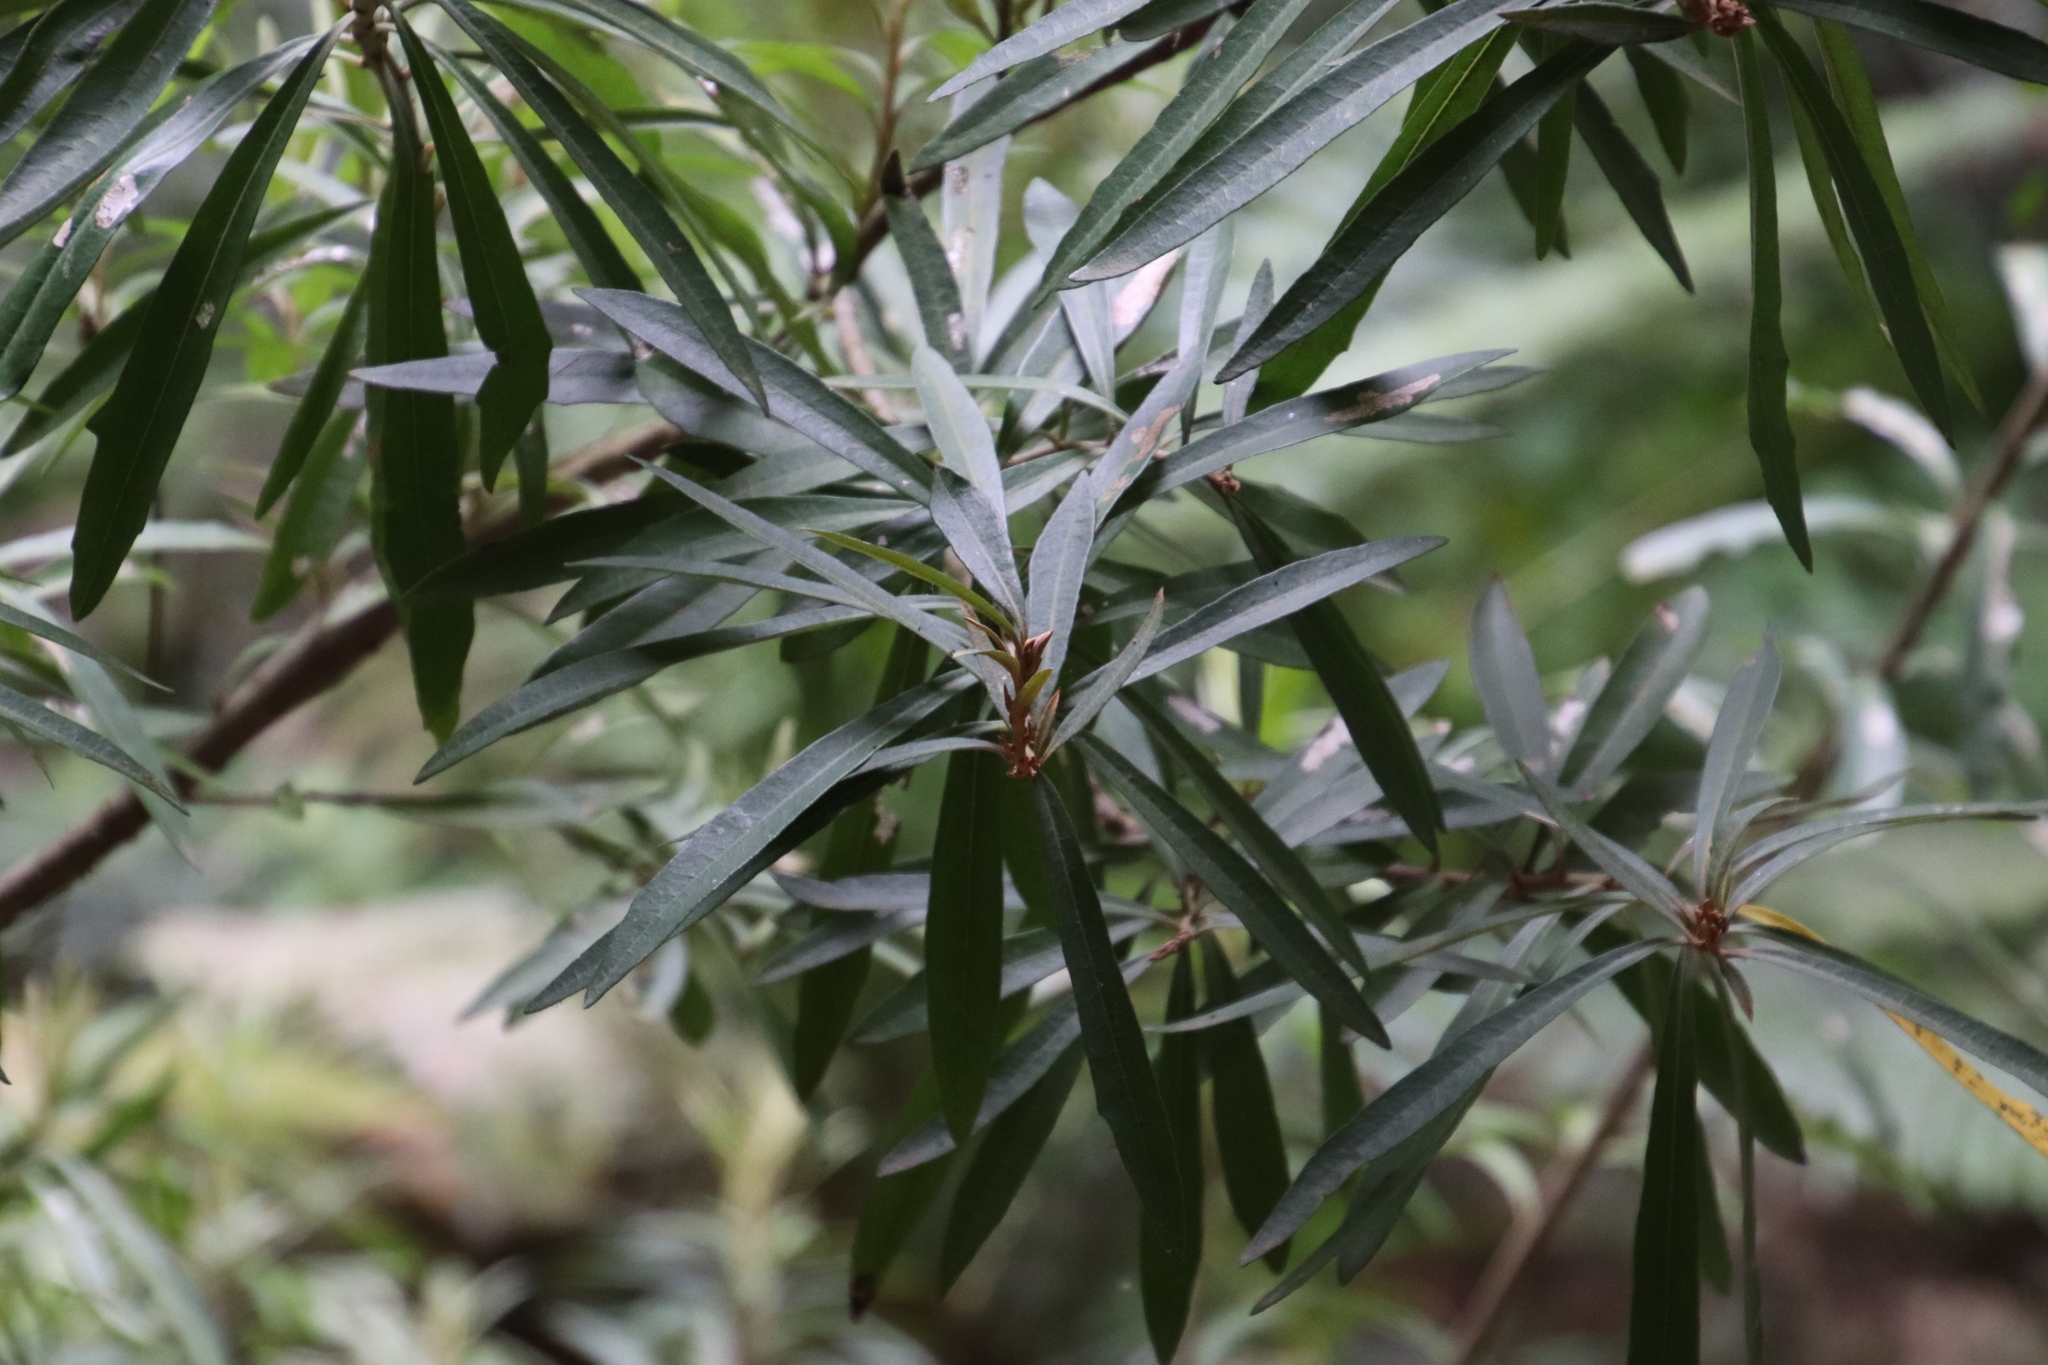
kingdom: Plantae
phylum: Tracheophyta
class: Magnoliopsida
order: Asterales
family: Asteraceae
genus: Brachylaena
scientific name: Brachylaena neriifolia
